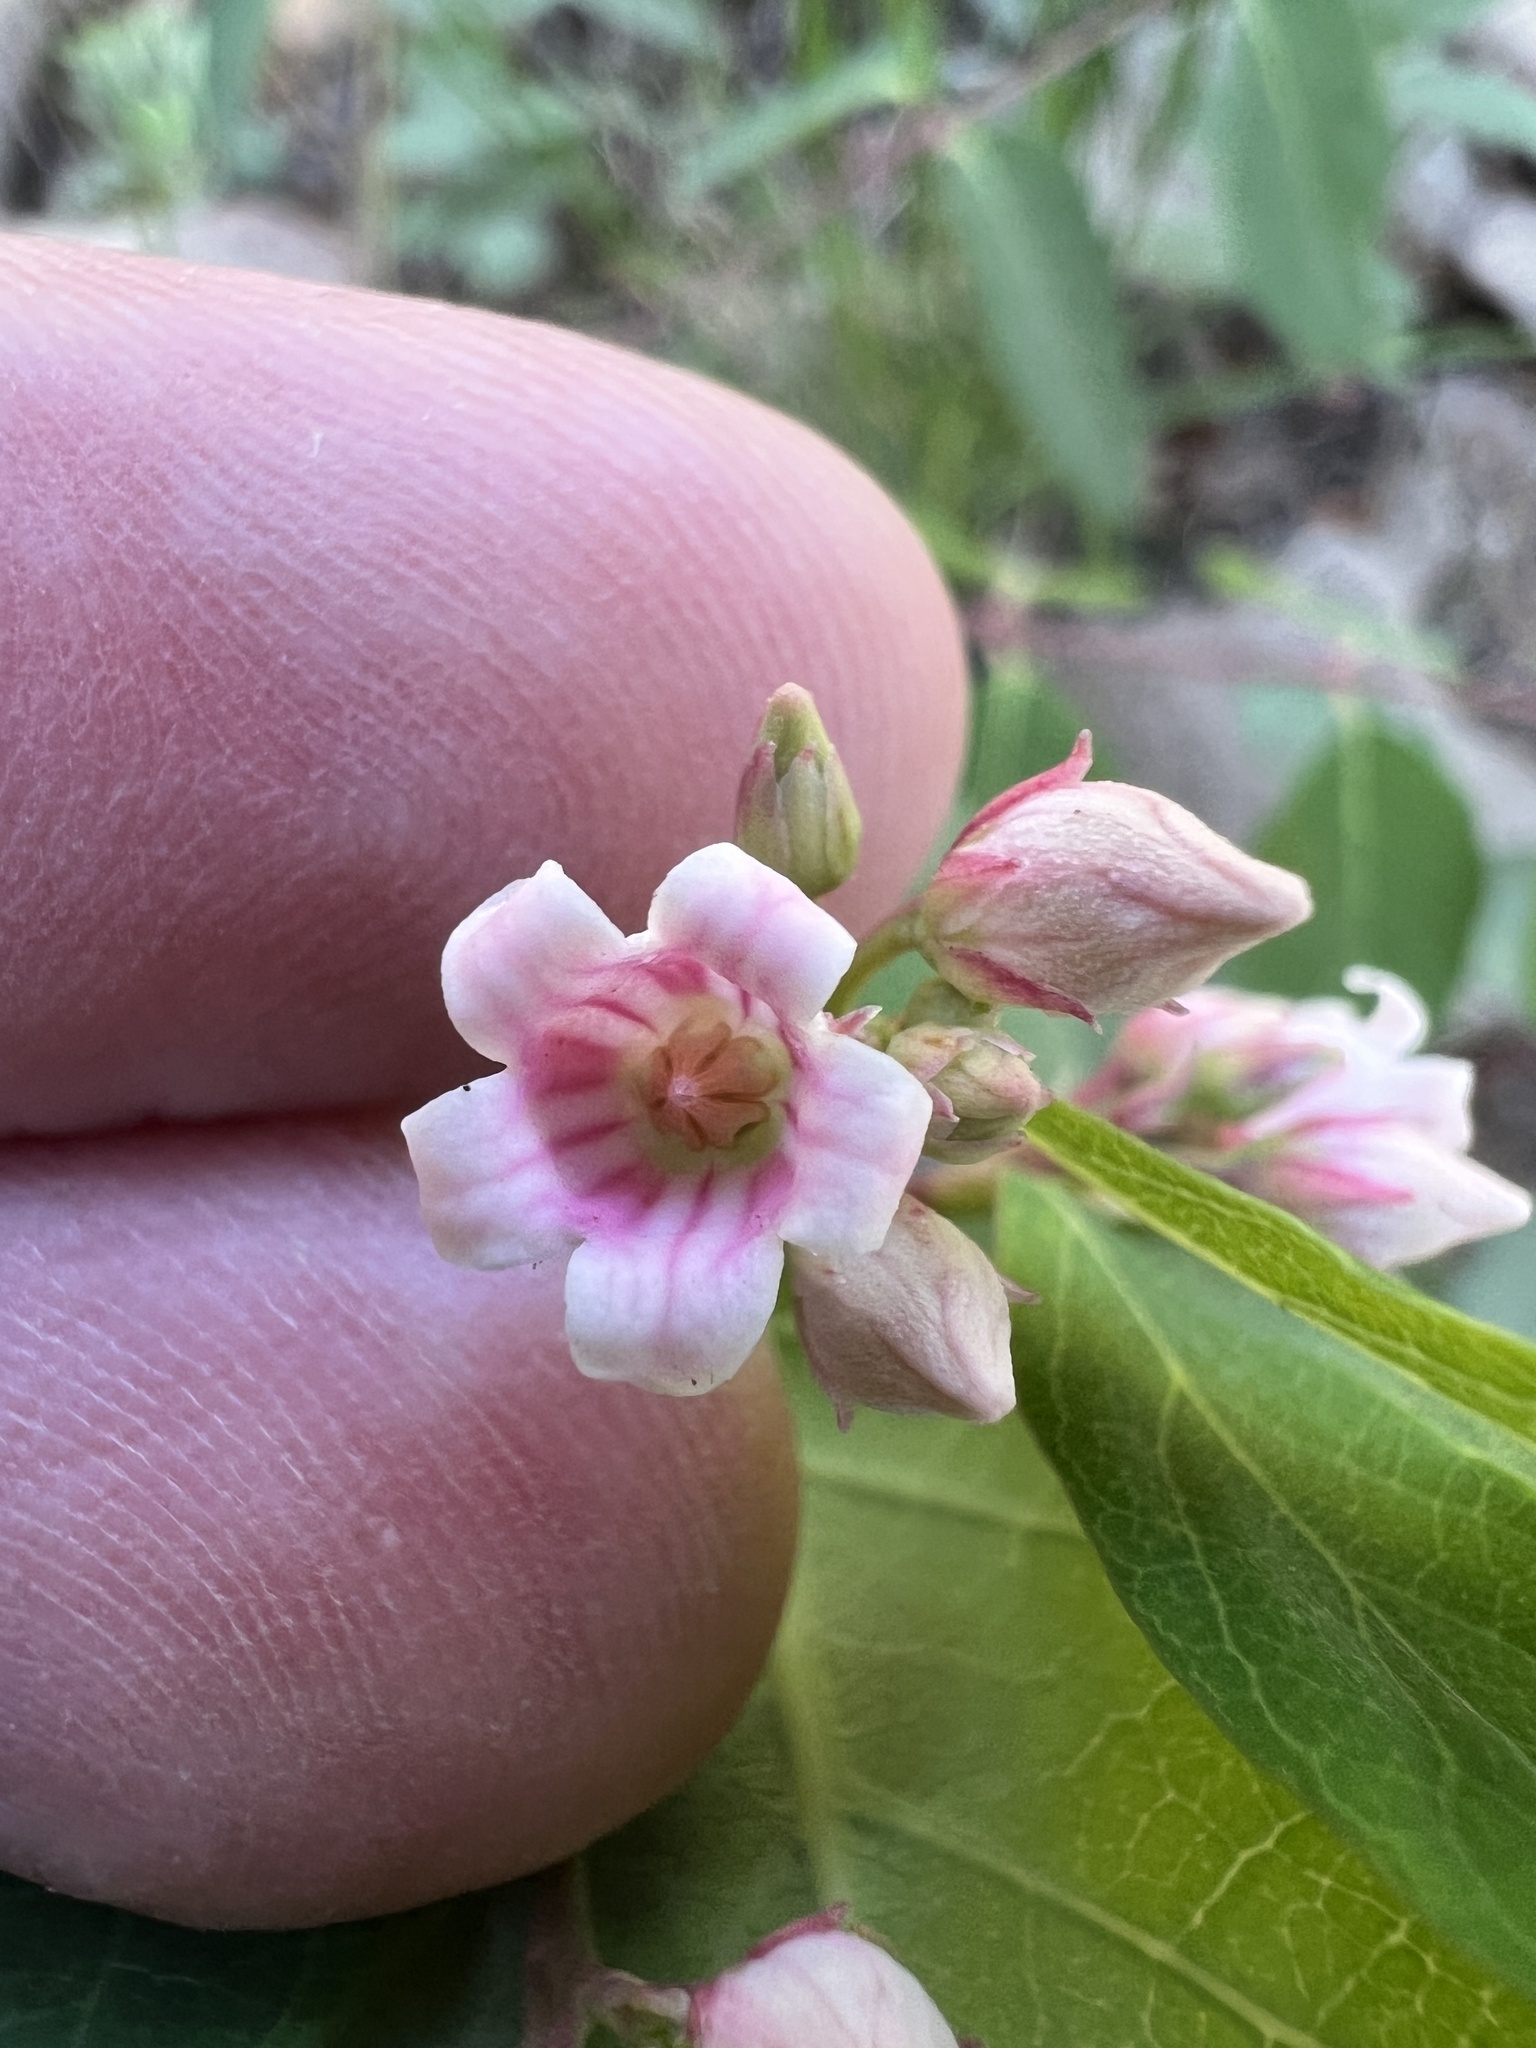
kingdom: Plantae
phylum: Tracheophyta
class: Magnoliopsida
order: Gentianales
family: Apocynaceae
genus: Apocynum
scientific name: Apocynum androsaemifolium
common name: Spreading dogbane
